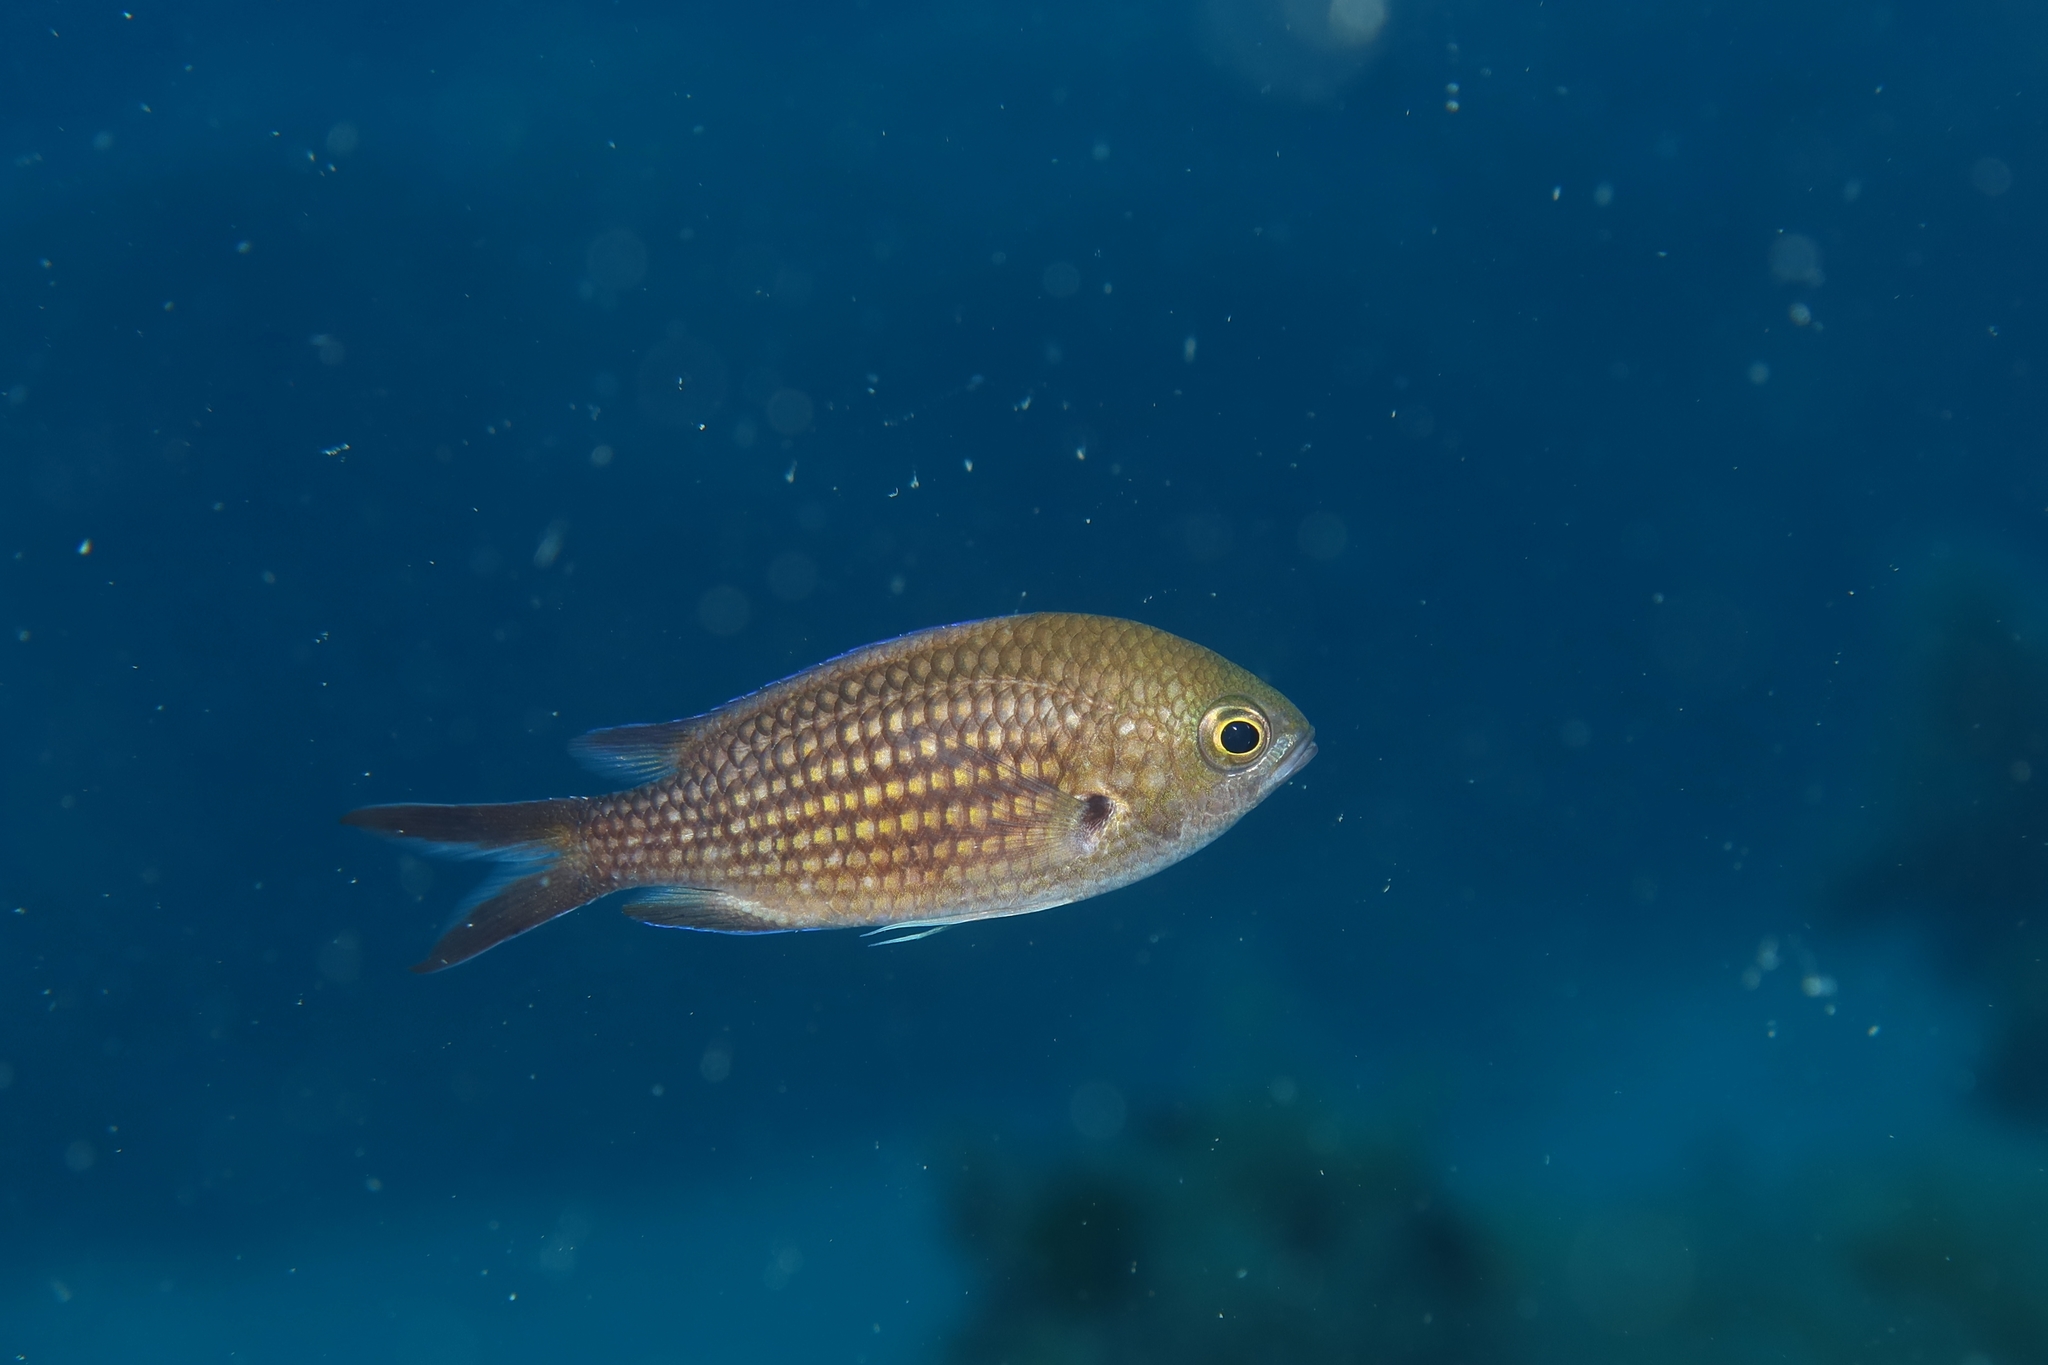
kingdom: Animalia
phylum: Chordata
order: Perciformes
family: Pomacentridae
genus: Chromis
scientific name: Chromis chromis
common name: Damselfish
